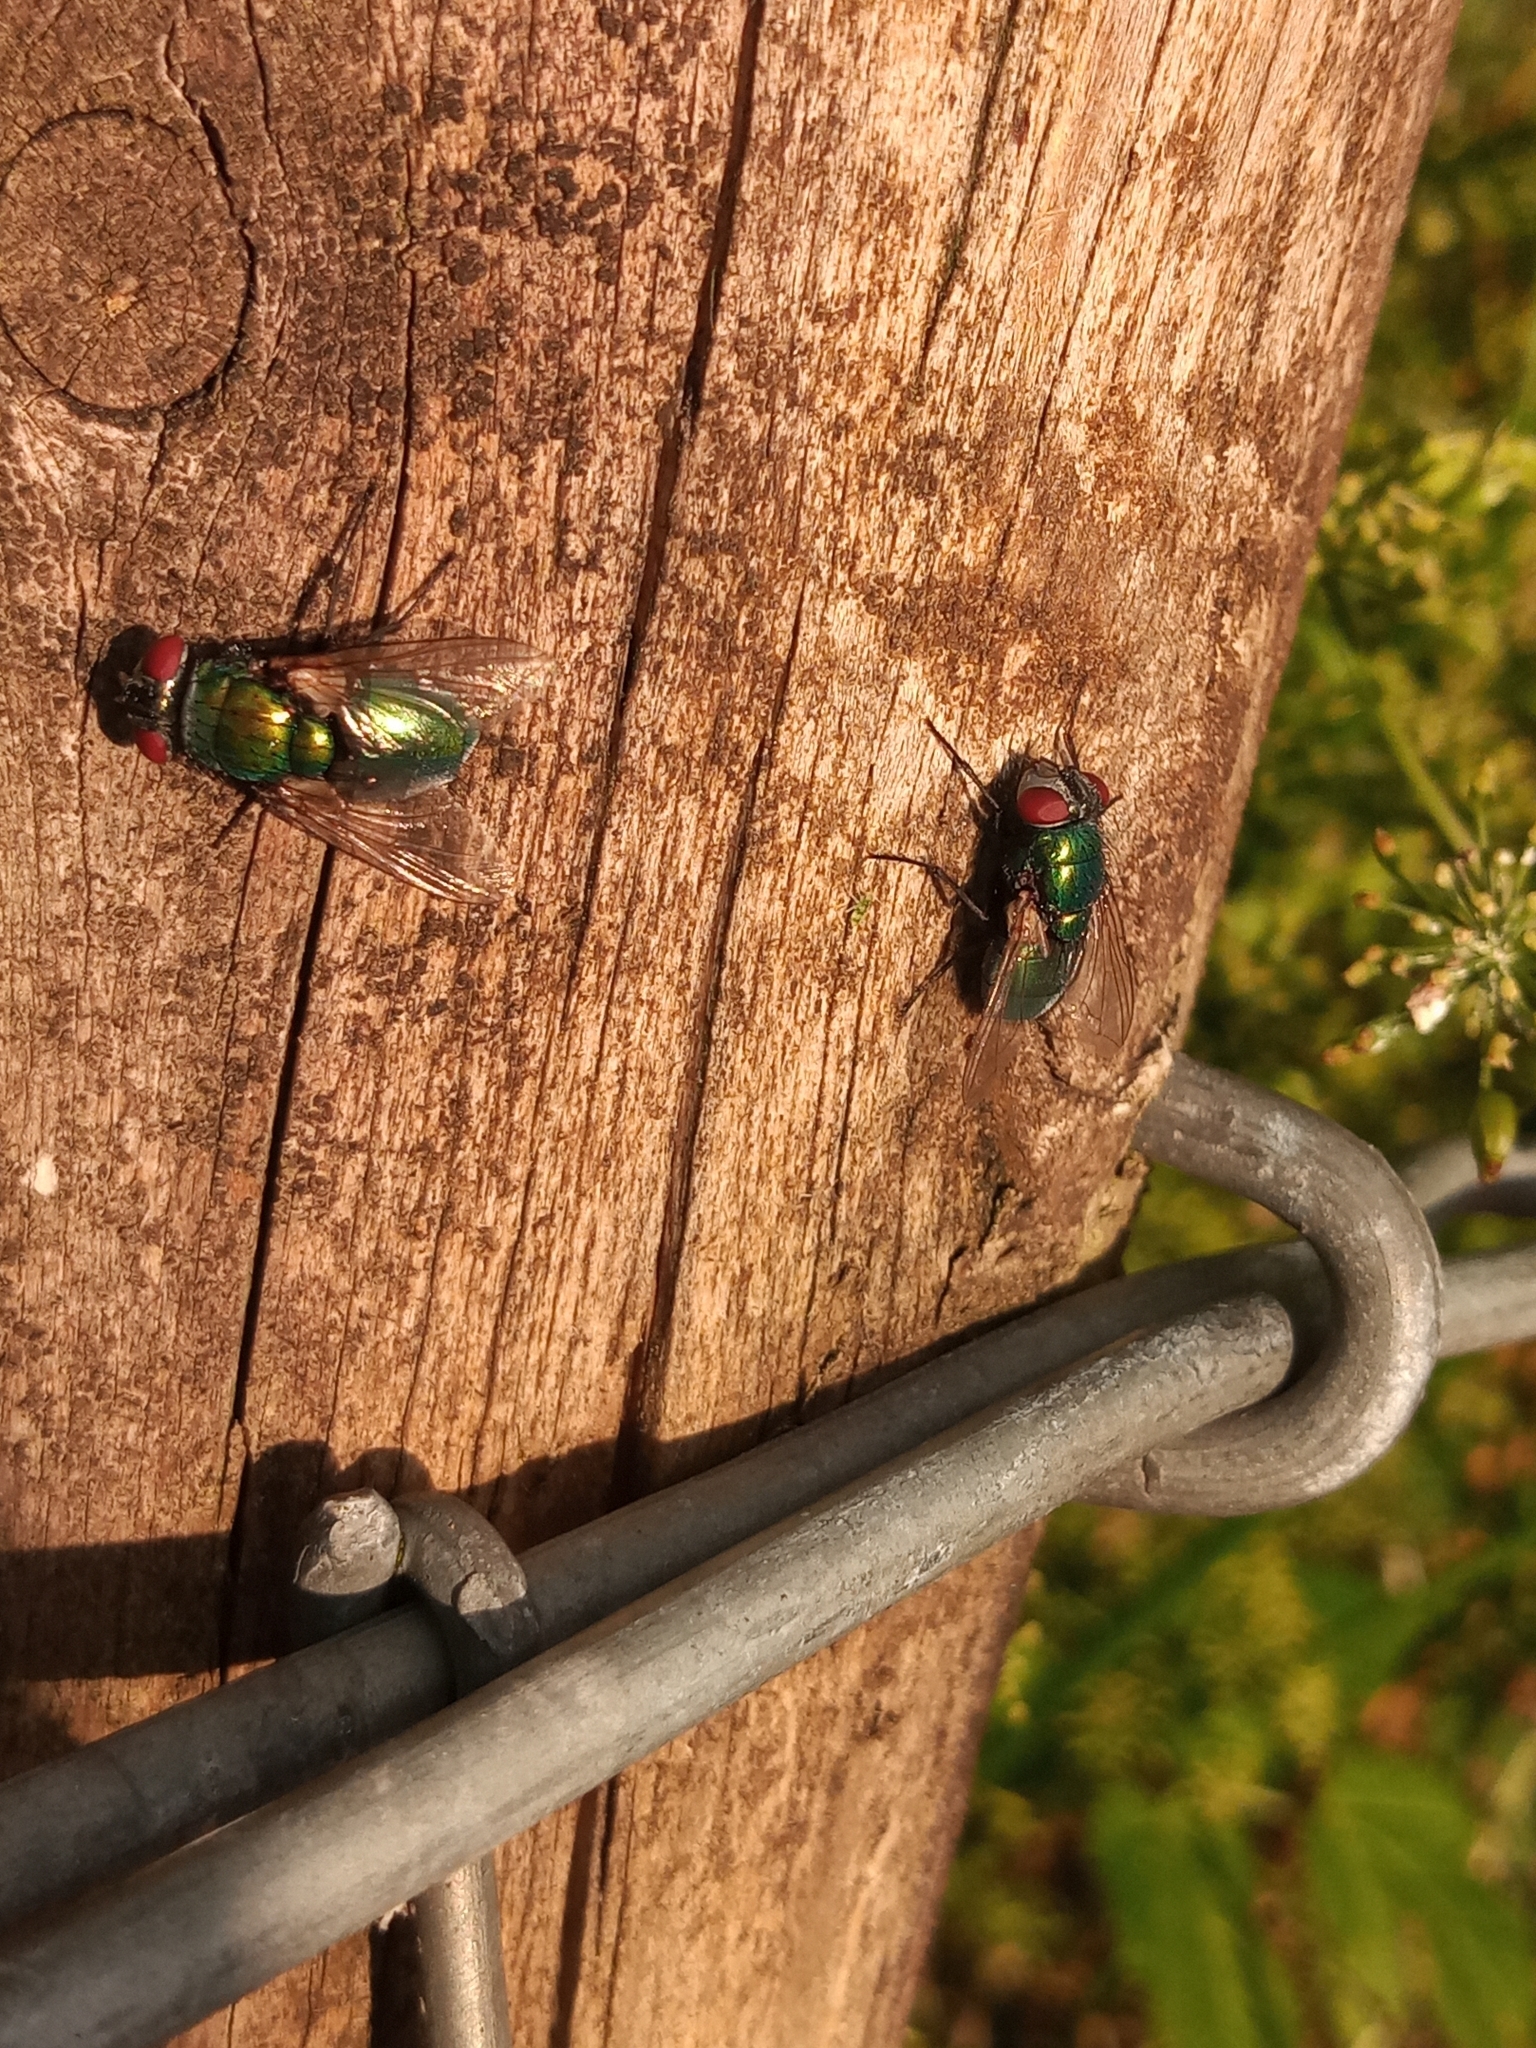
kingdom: Animalia
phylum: Arthropoda
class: Insecta
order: Diptera
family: Calliphoridae
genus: Lucilia
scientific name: Lucilia
